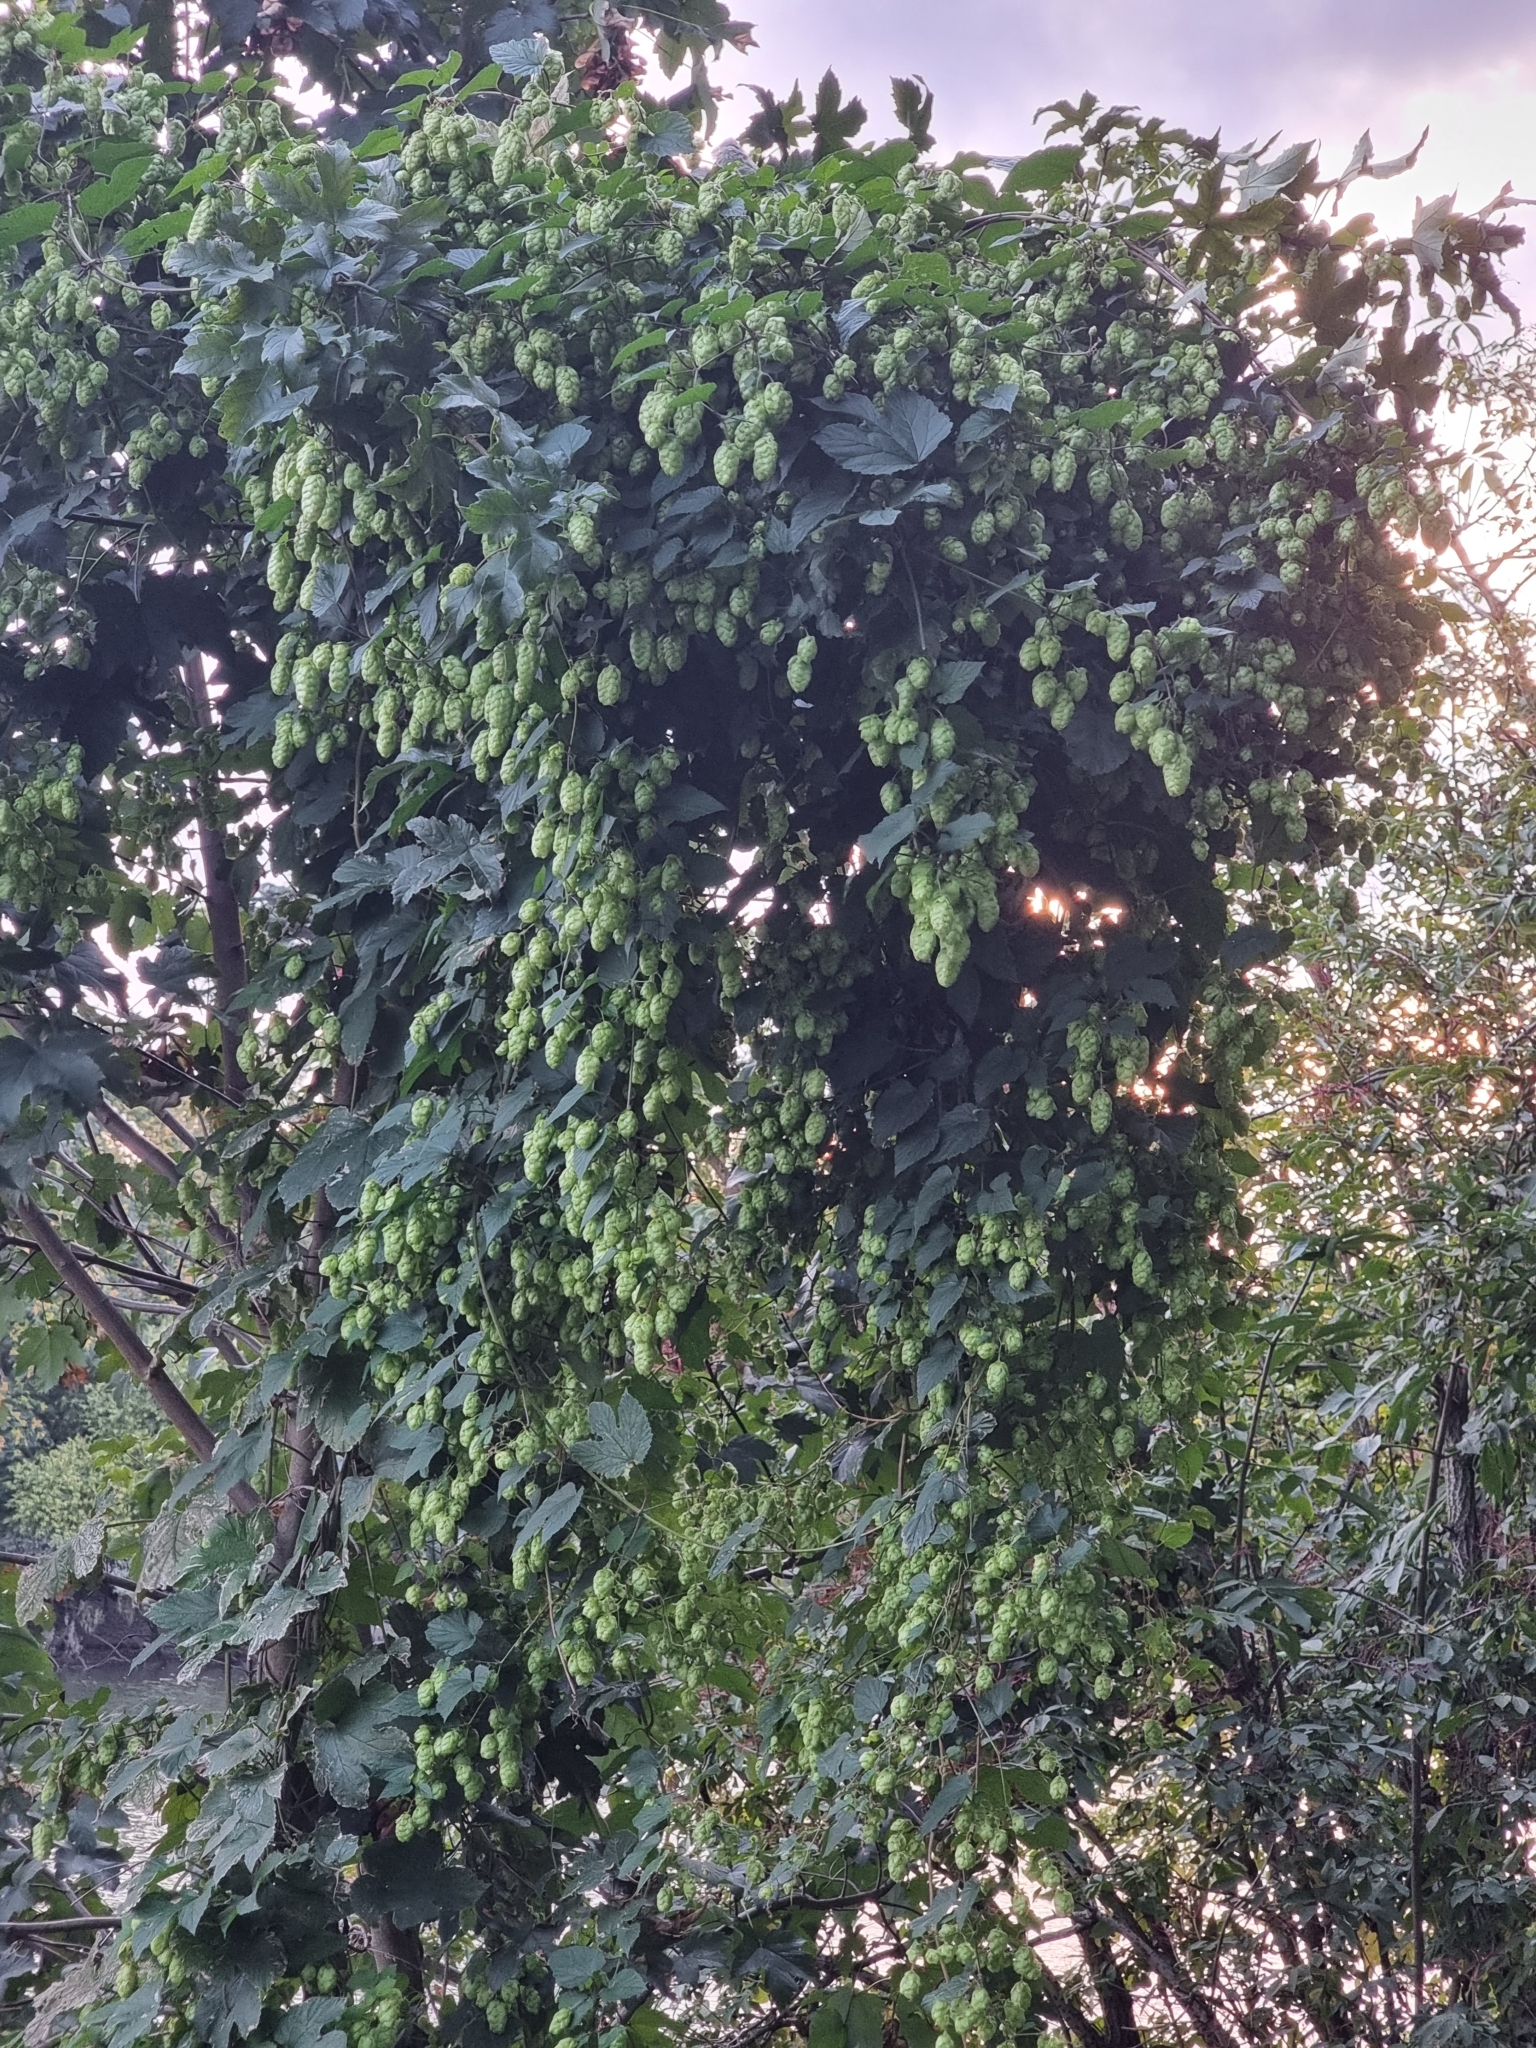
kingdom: Plantae
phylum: Tracheophyta
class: Magnoliopsida
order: Rosales
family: Cannabaceae
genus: Humulus
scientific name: Humulus lupulus
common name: Hop
